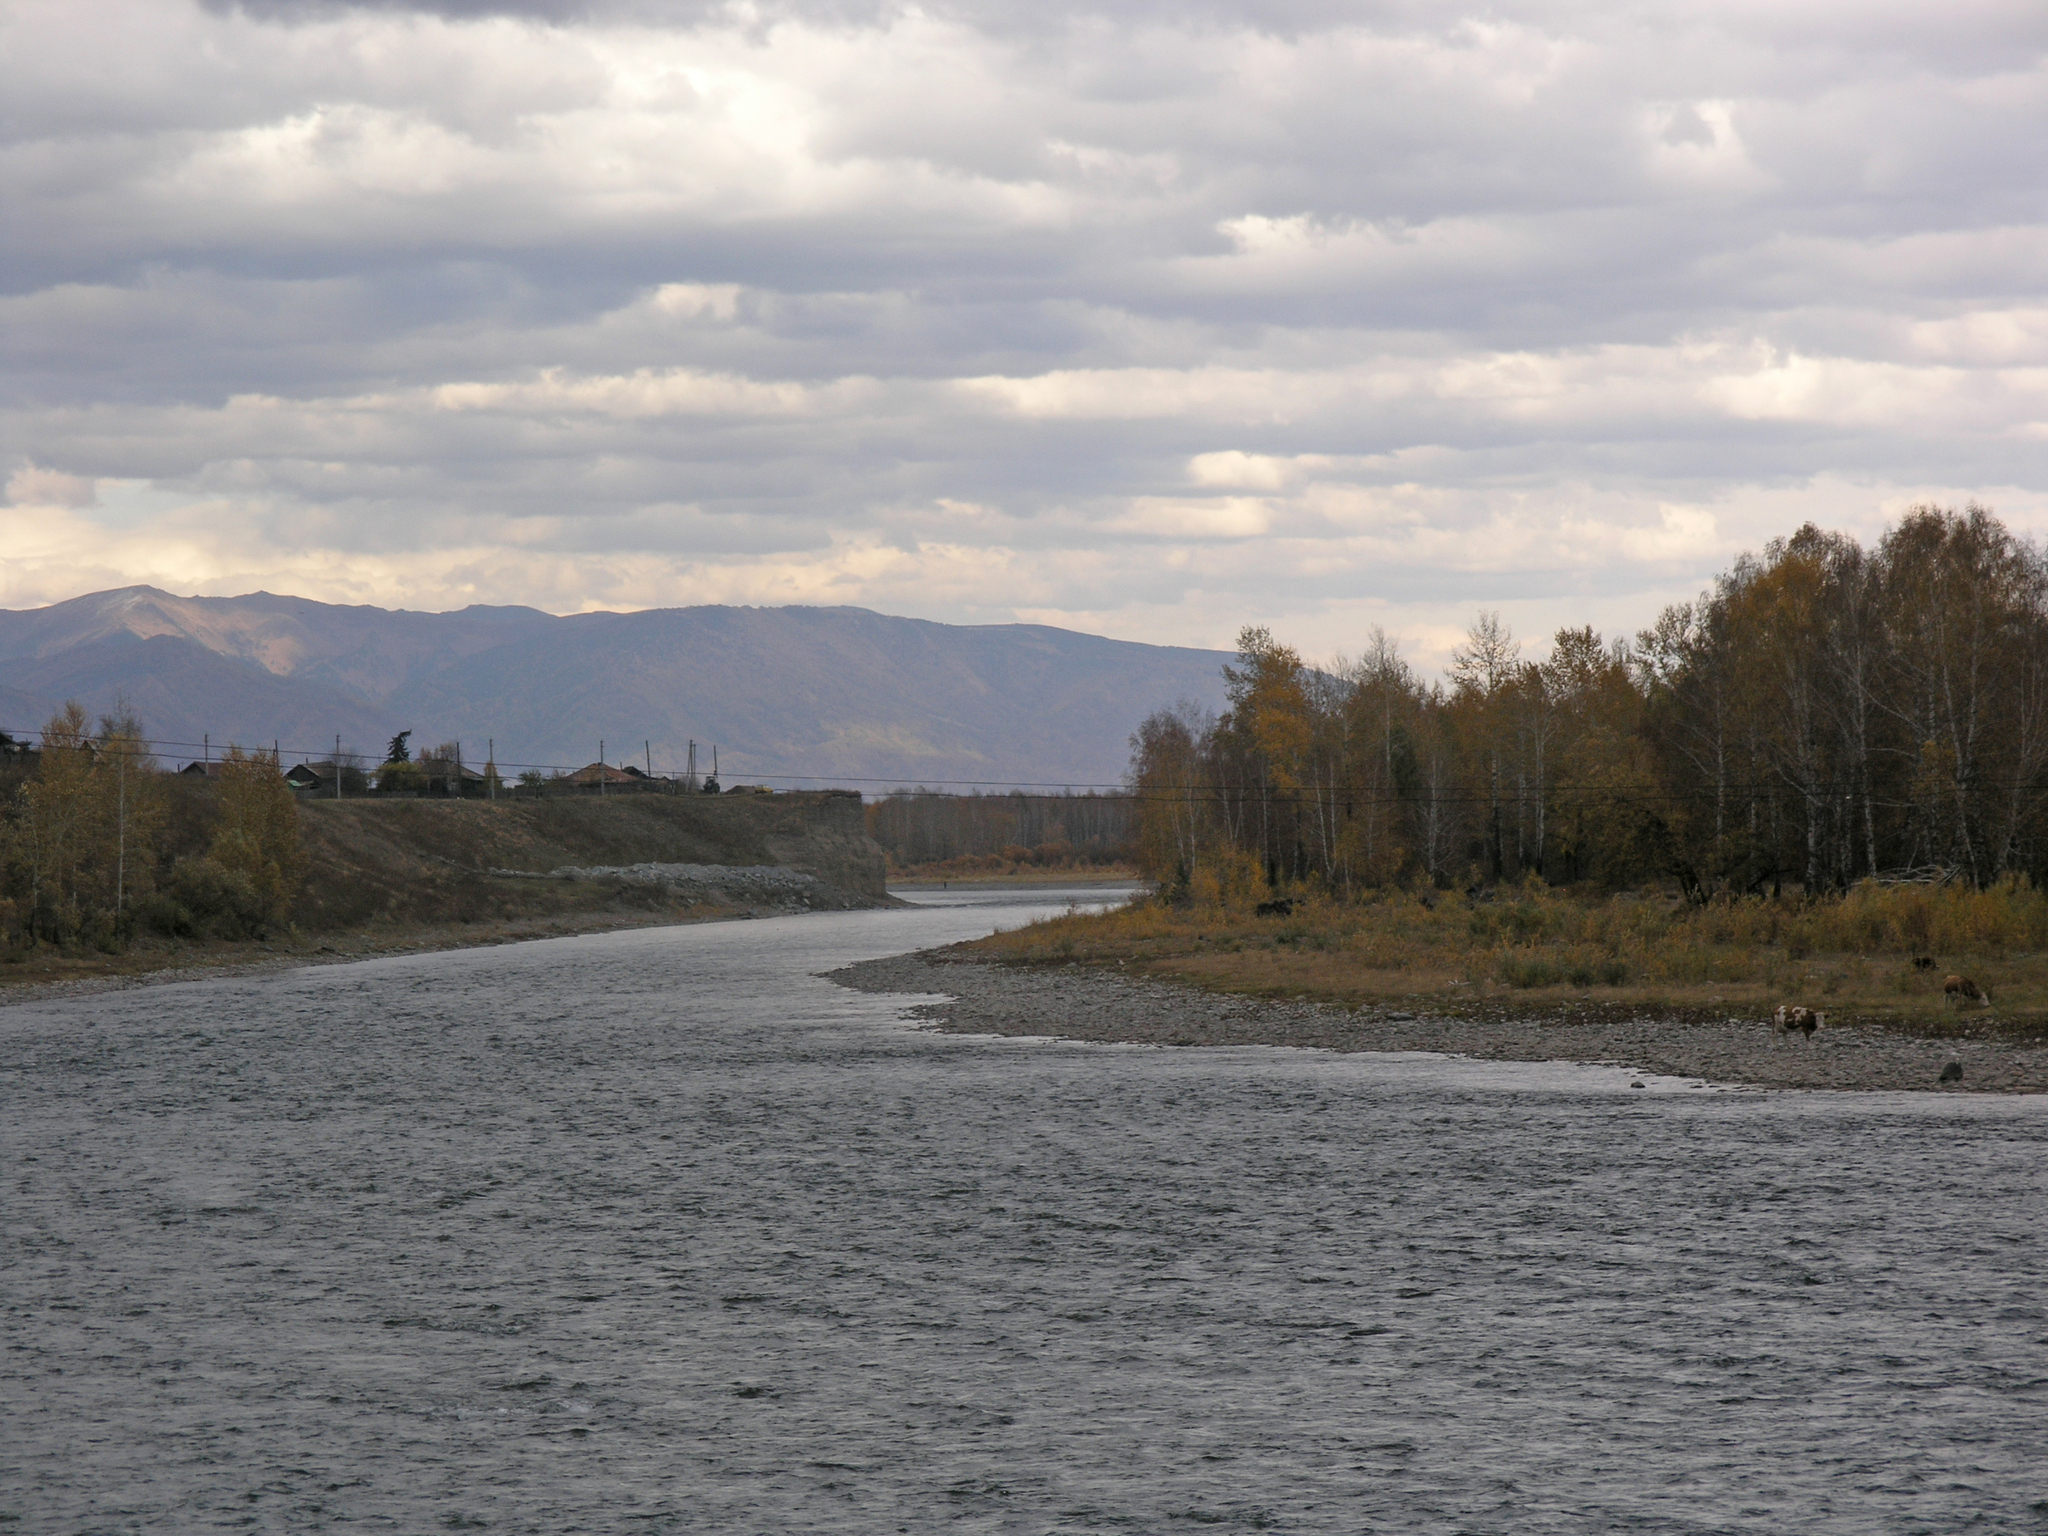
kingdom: Plantae
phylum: Tracheophyta
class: Magnoliopsida
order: Fagales
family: Betulaceae
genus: Betula
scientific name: Betula pendula
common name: Silver birch
